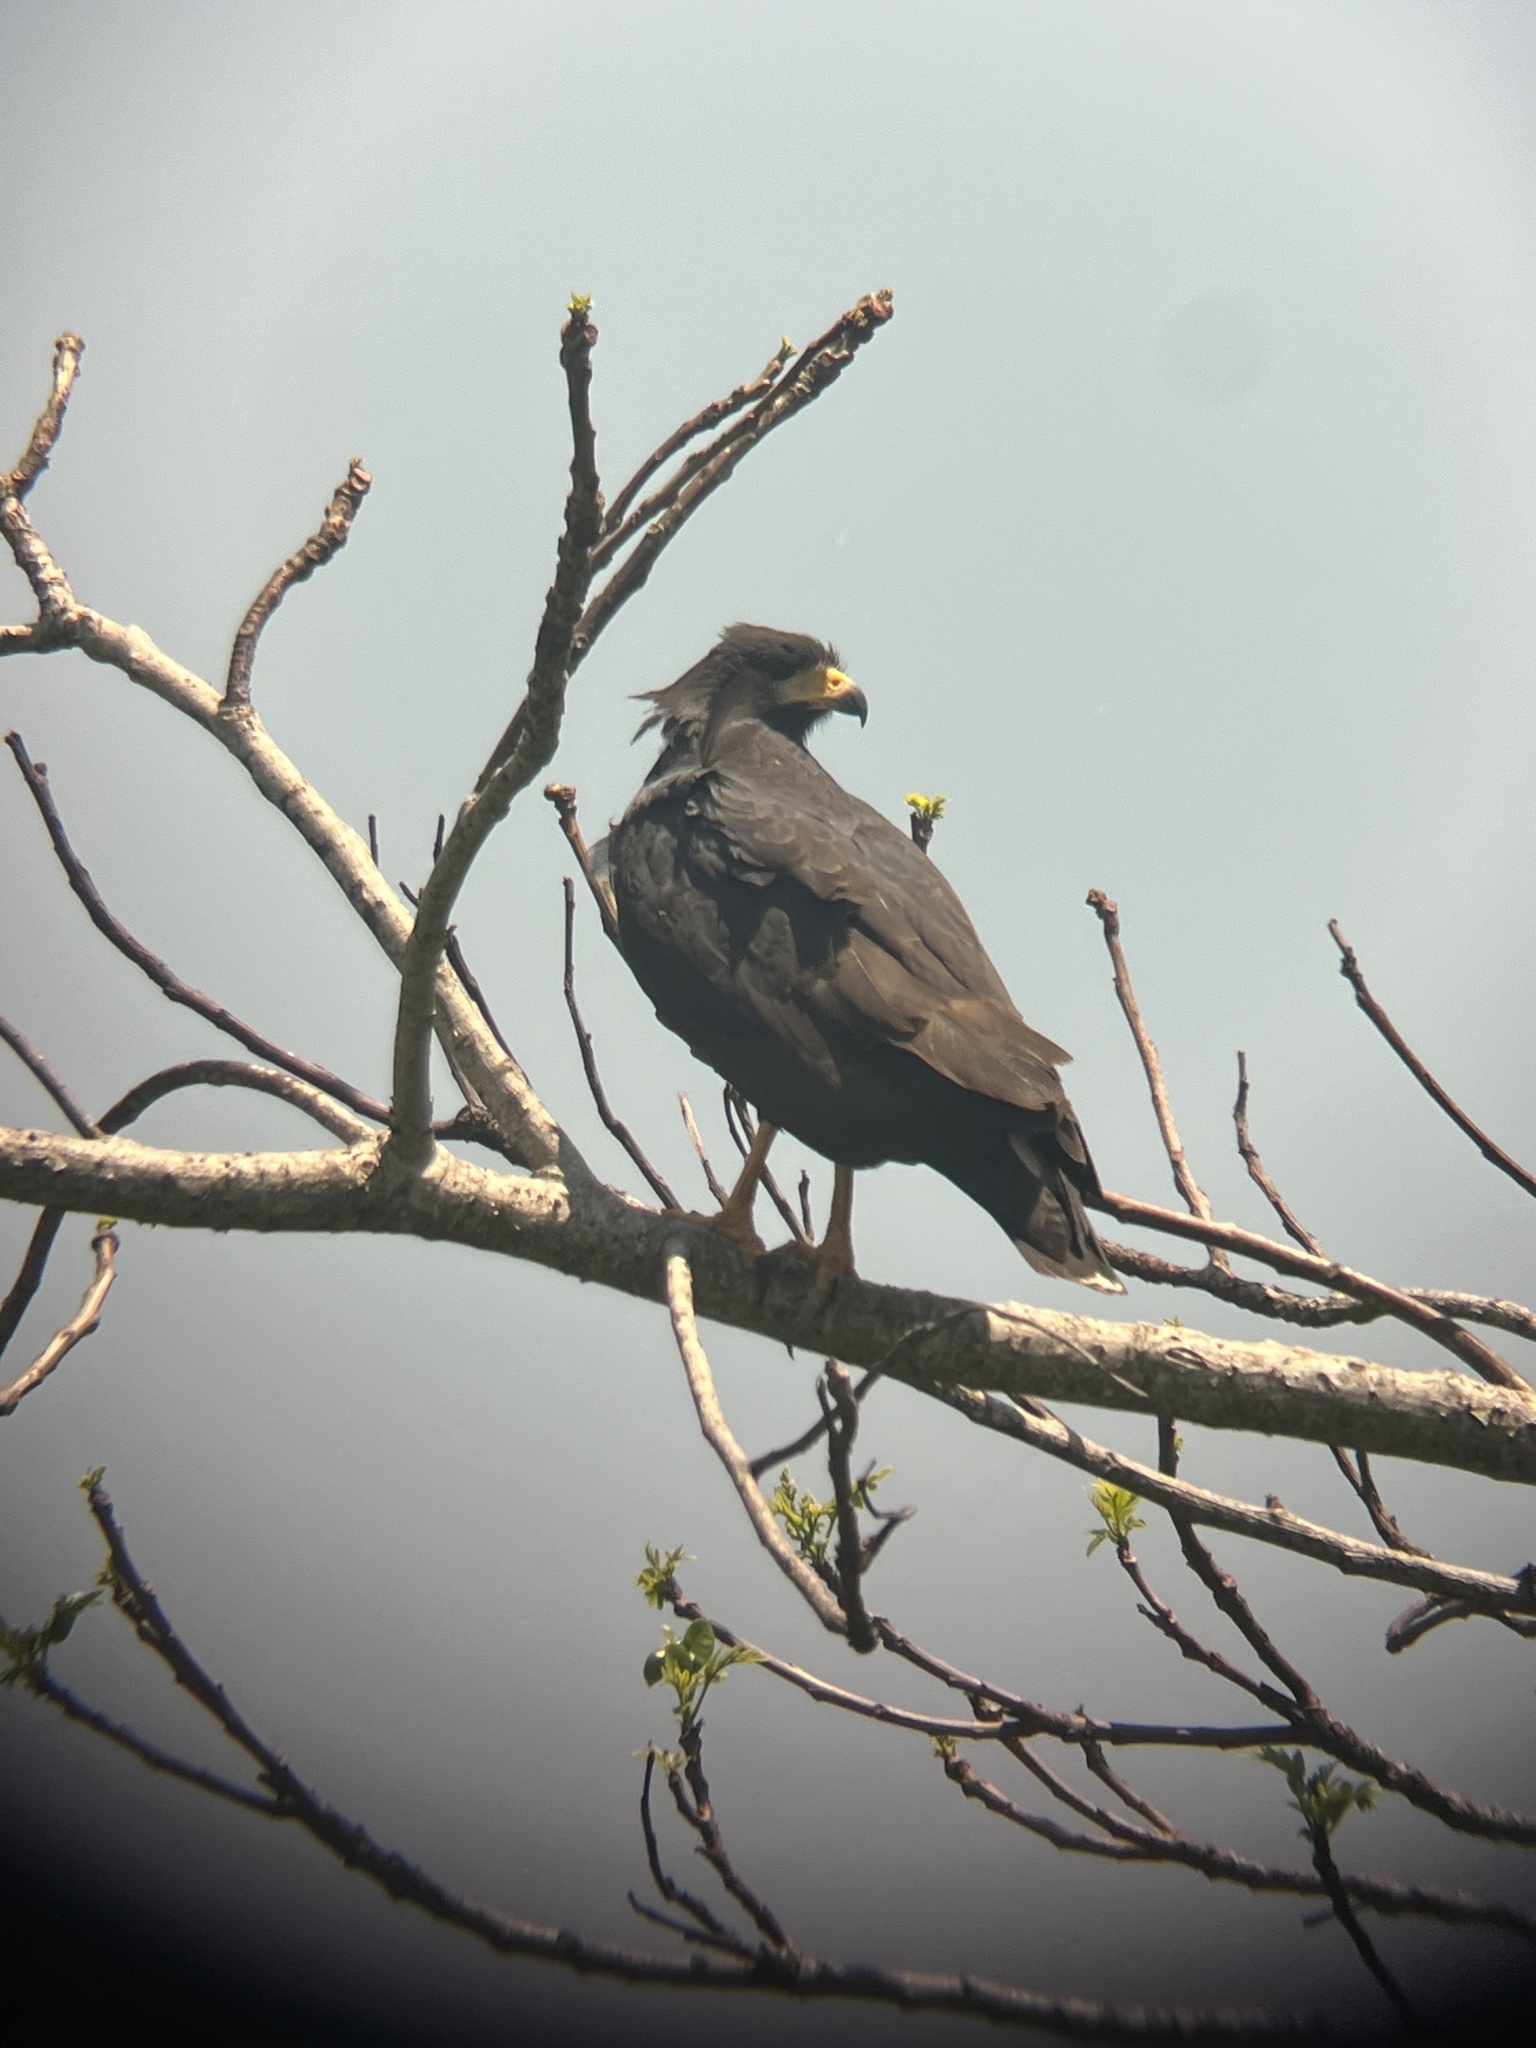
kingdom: Animalia
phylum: Chordata
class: Aves
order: Accipitriformes
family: Accipitridae
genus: Buteogallus
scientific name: Buteogallus anthracinus
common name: Common black hawk
